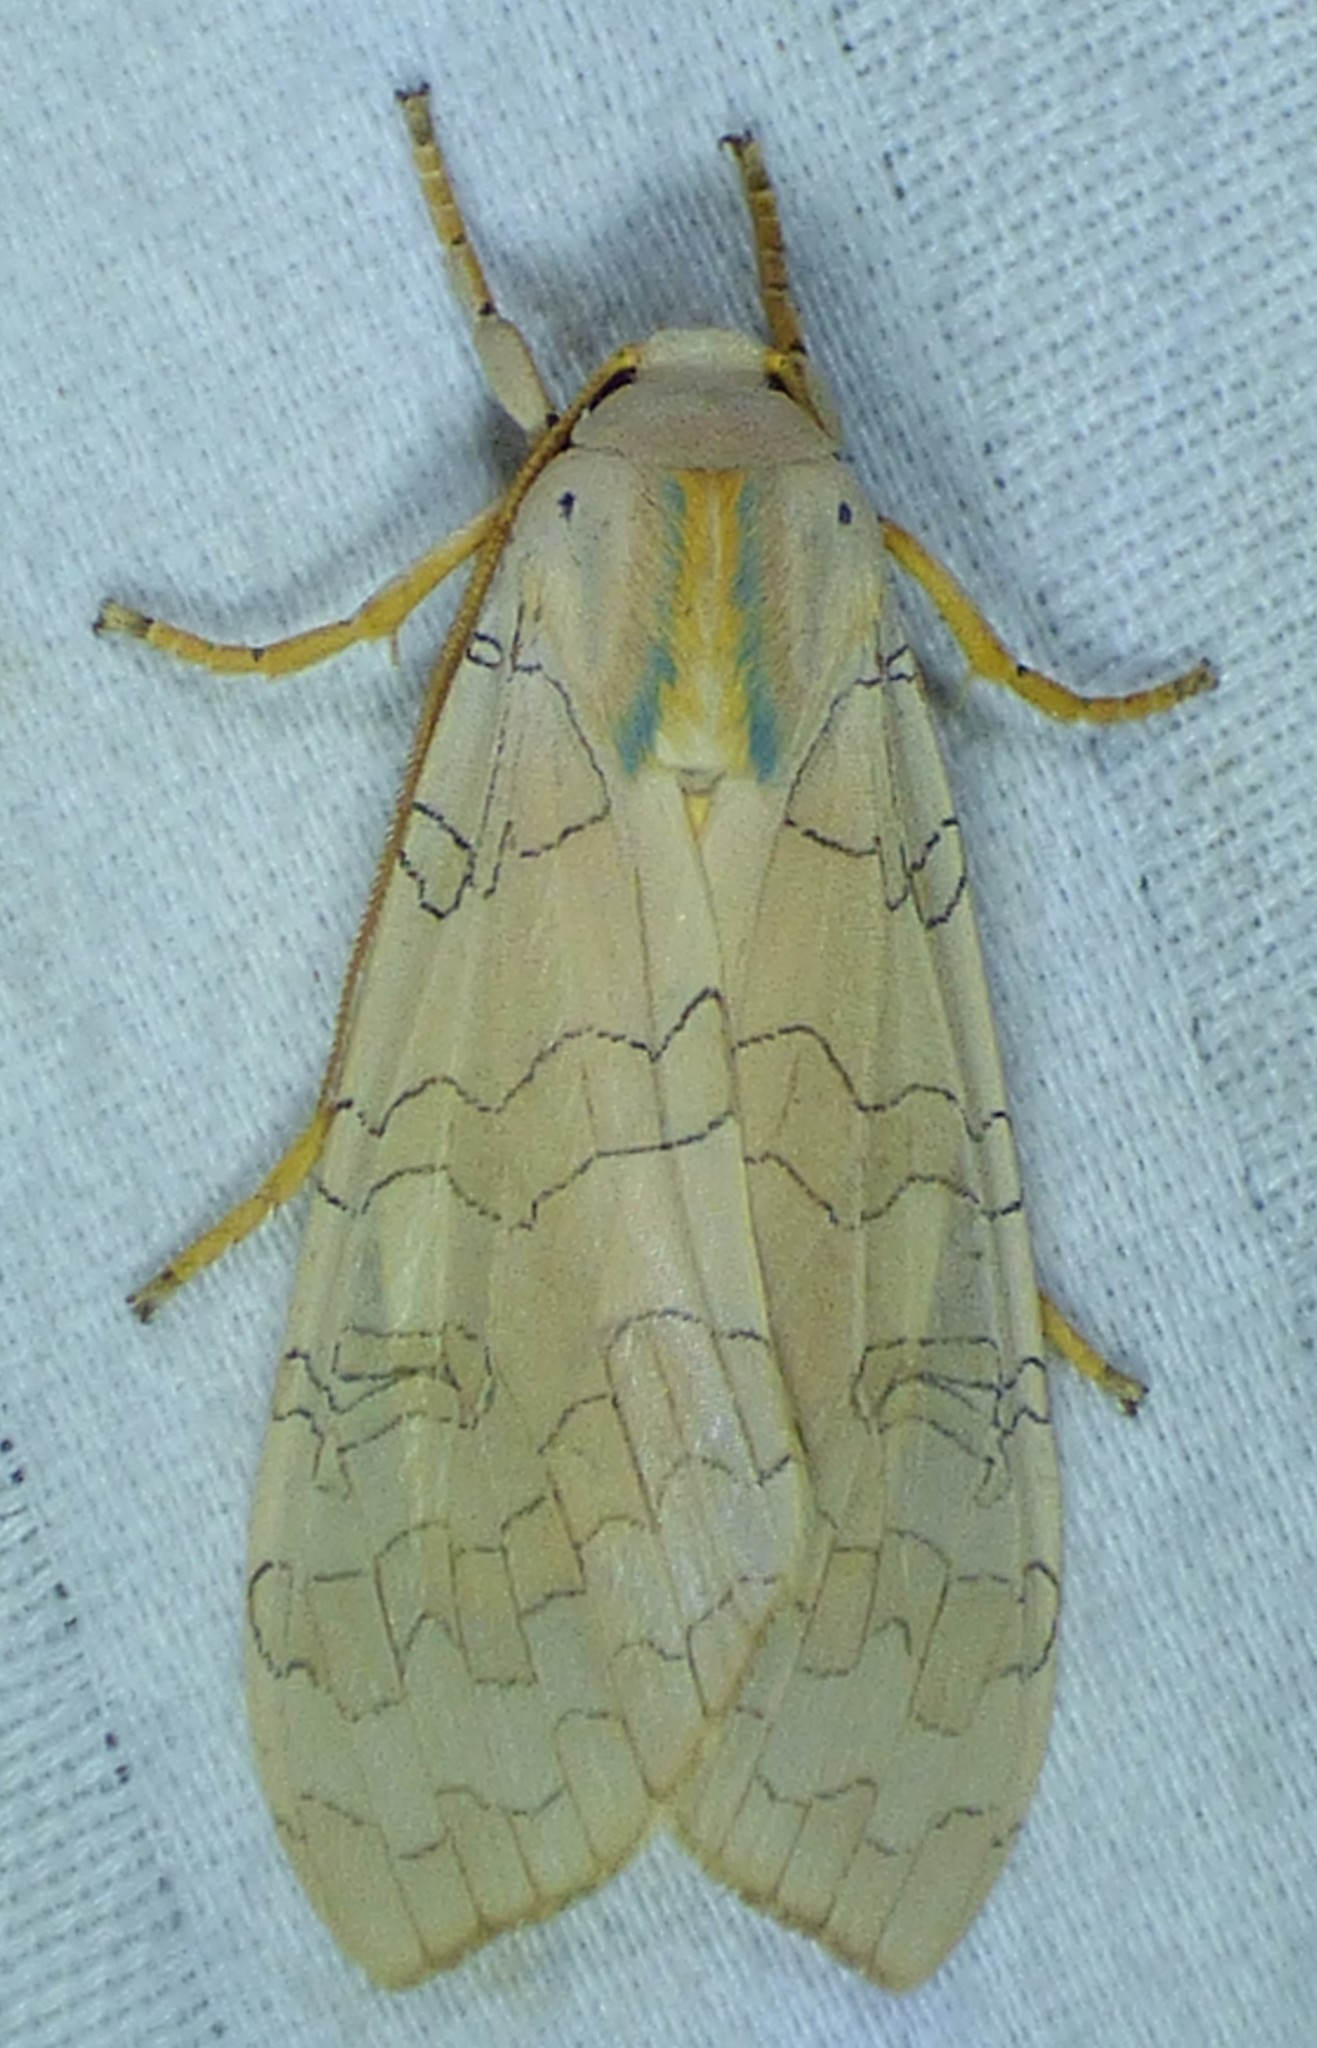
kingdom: Animalia
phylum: Arthropoda
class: Insecta
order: Lepidoptera
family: Erebidae
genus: Halysidota
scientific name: Halysidota
